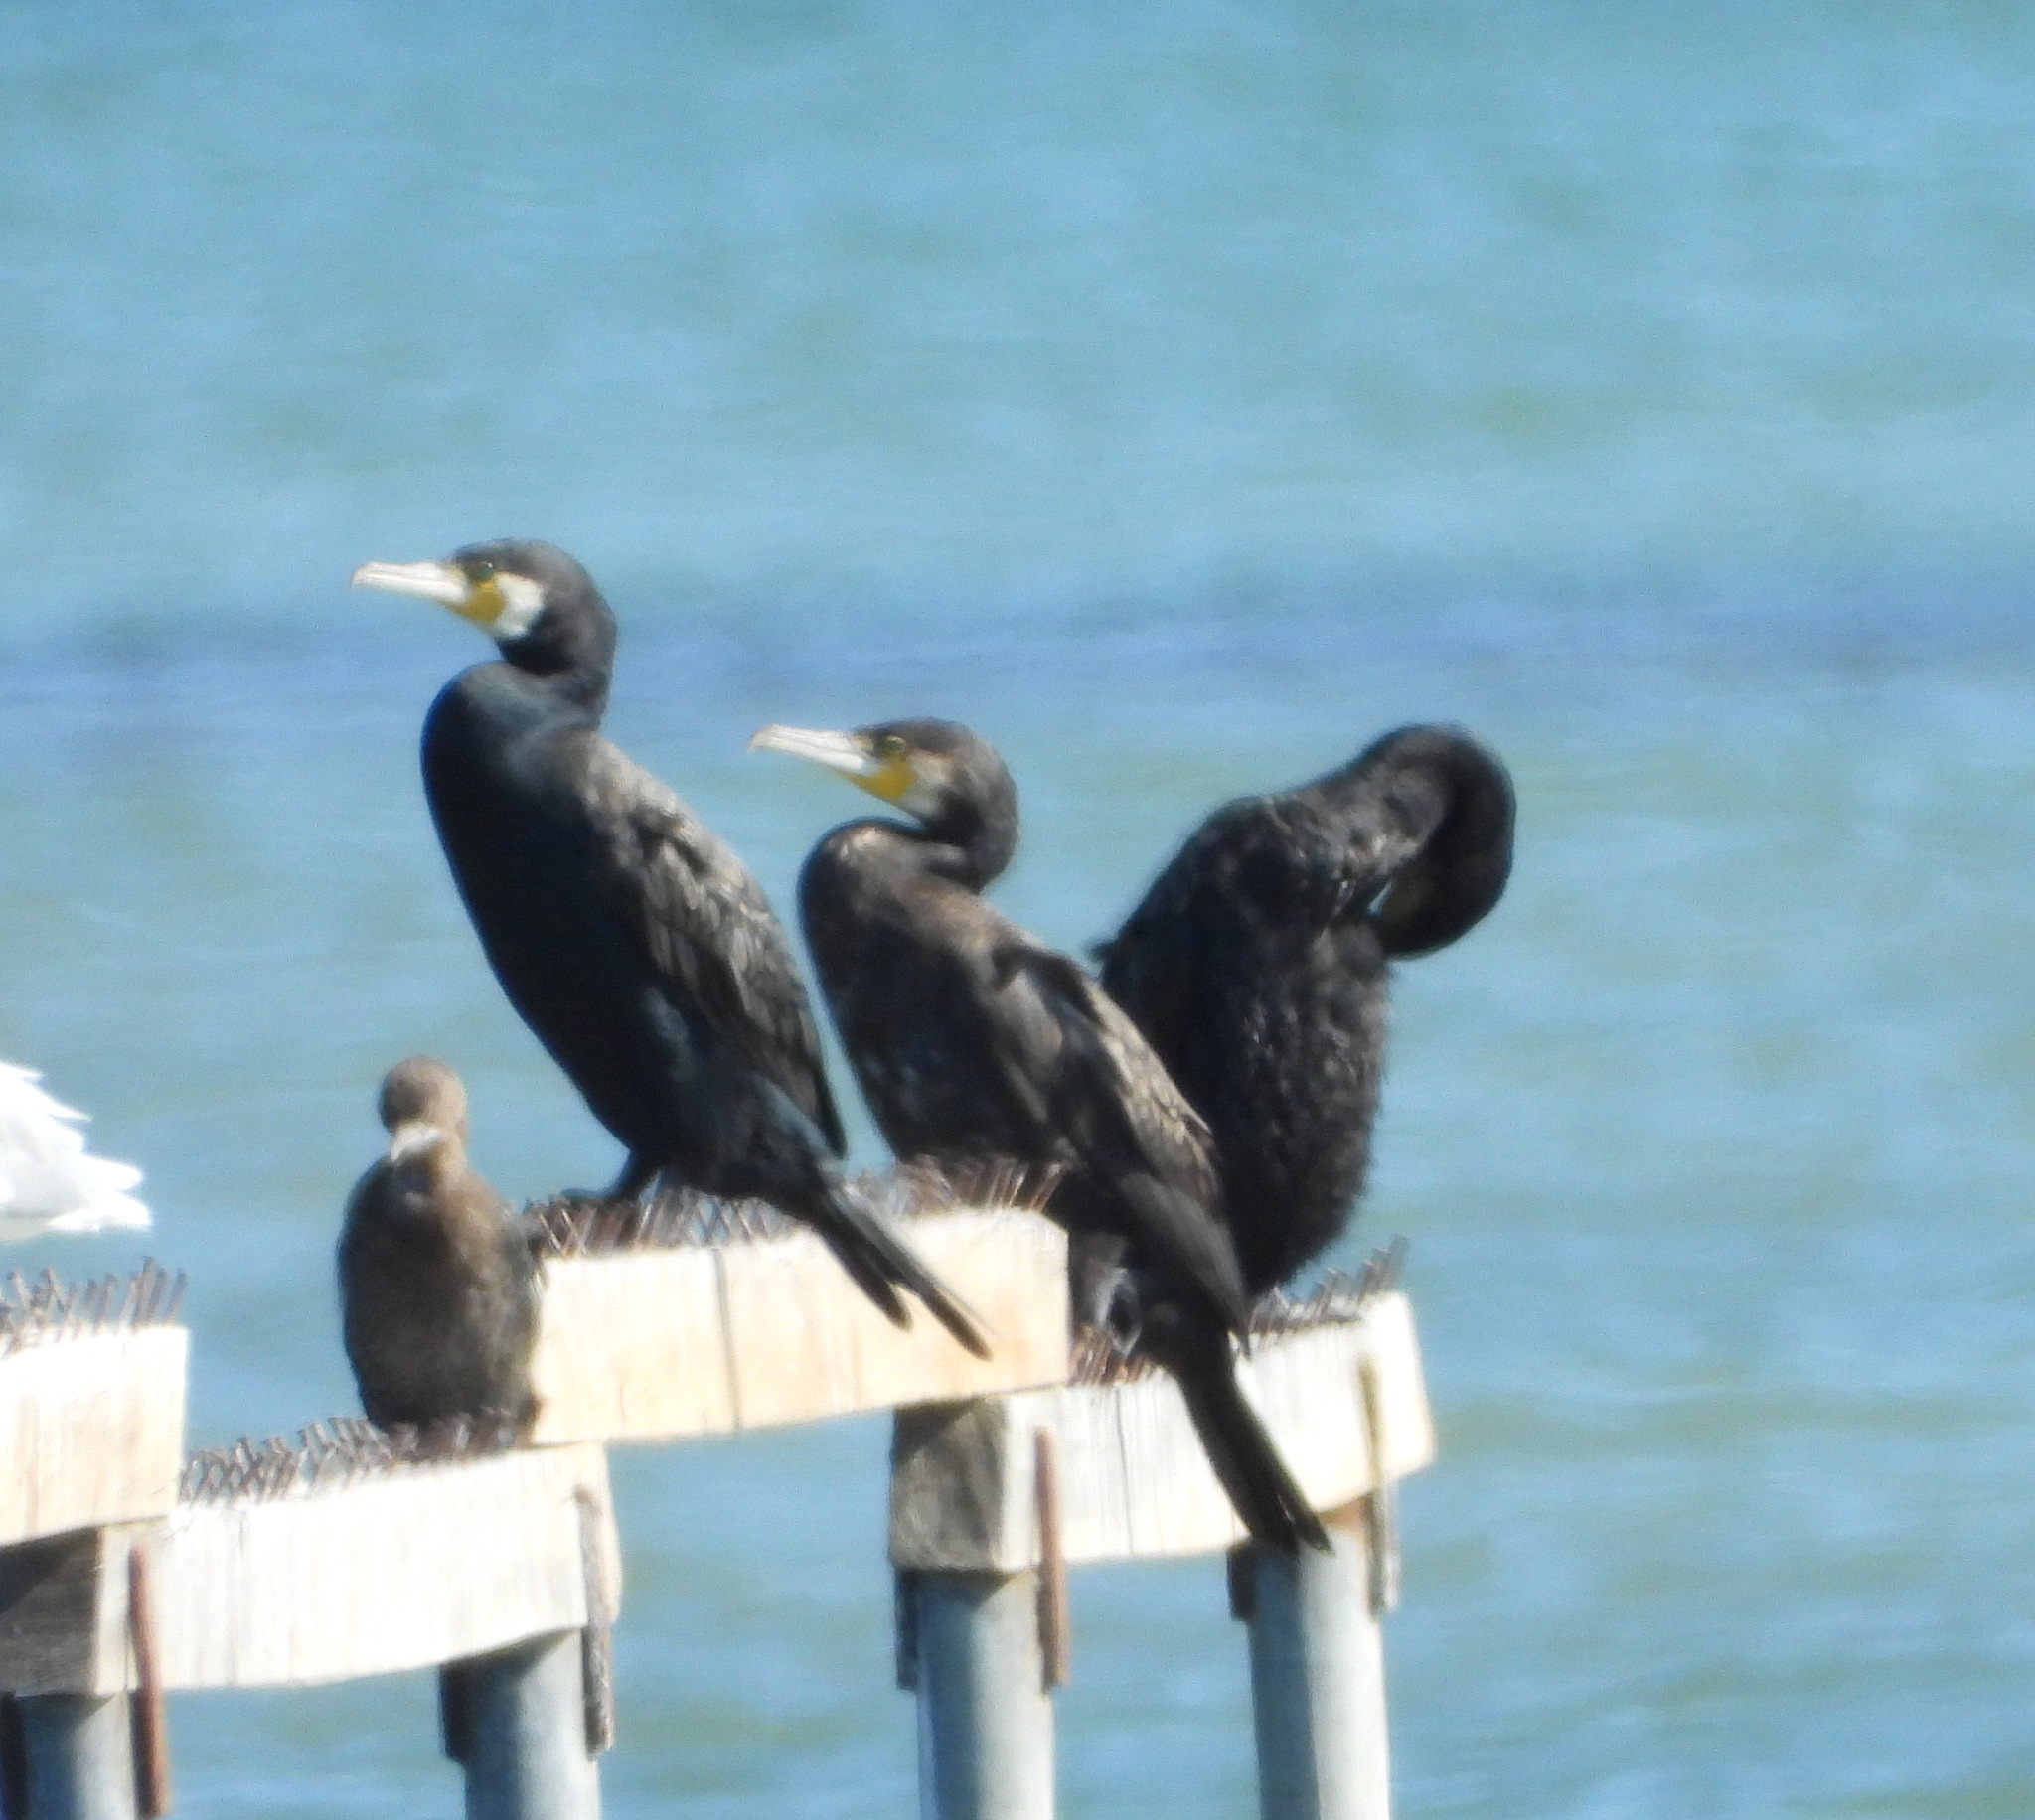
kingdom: Animalia
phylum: Chordata
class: Aves
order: Suliformes
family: Phalacrocoracidae
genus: Phalacrocorax
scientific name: Phalacrocorax carbo
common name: Great cormorant
